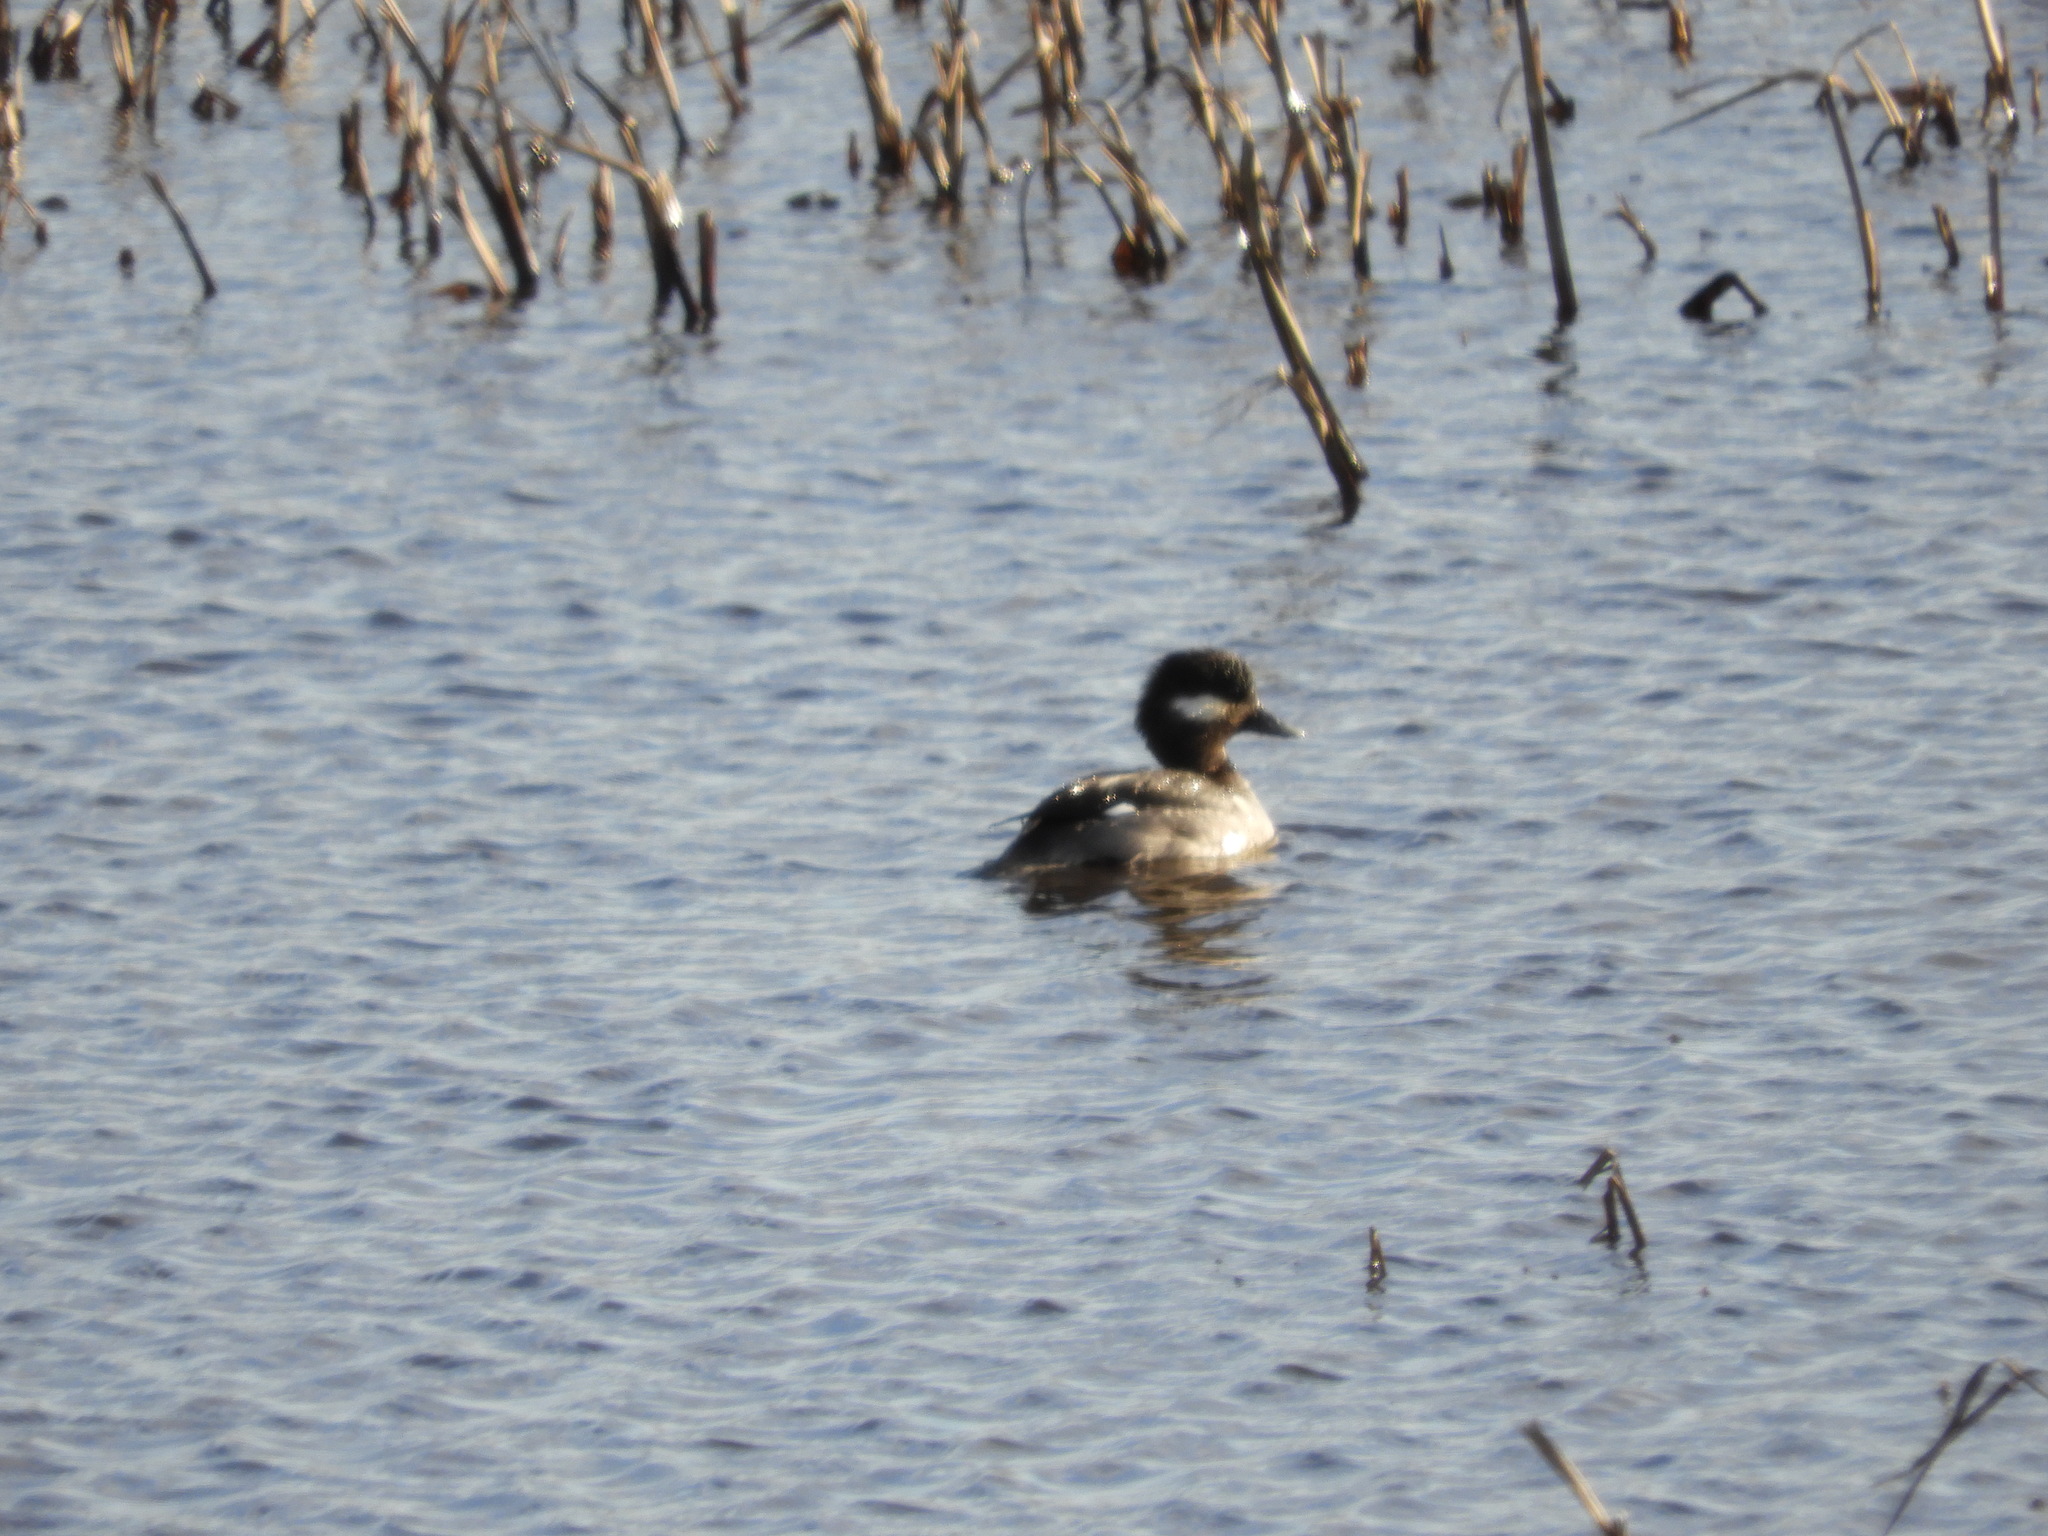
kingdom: Animalia
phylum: Chordata
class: Aves
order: Anseriformes
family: Anatidae
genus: Bucephala
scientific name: Bucephala albeola
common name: Bufflehead
